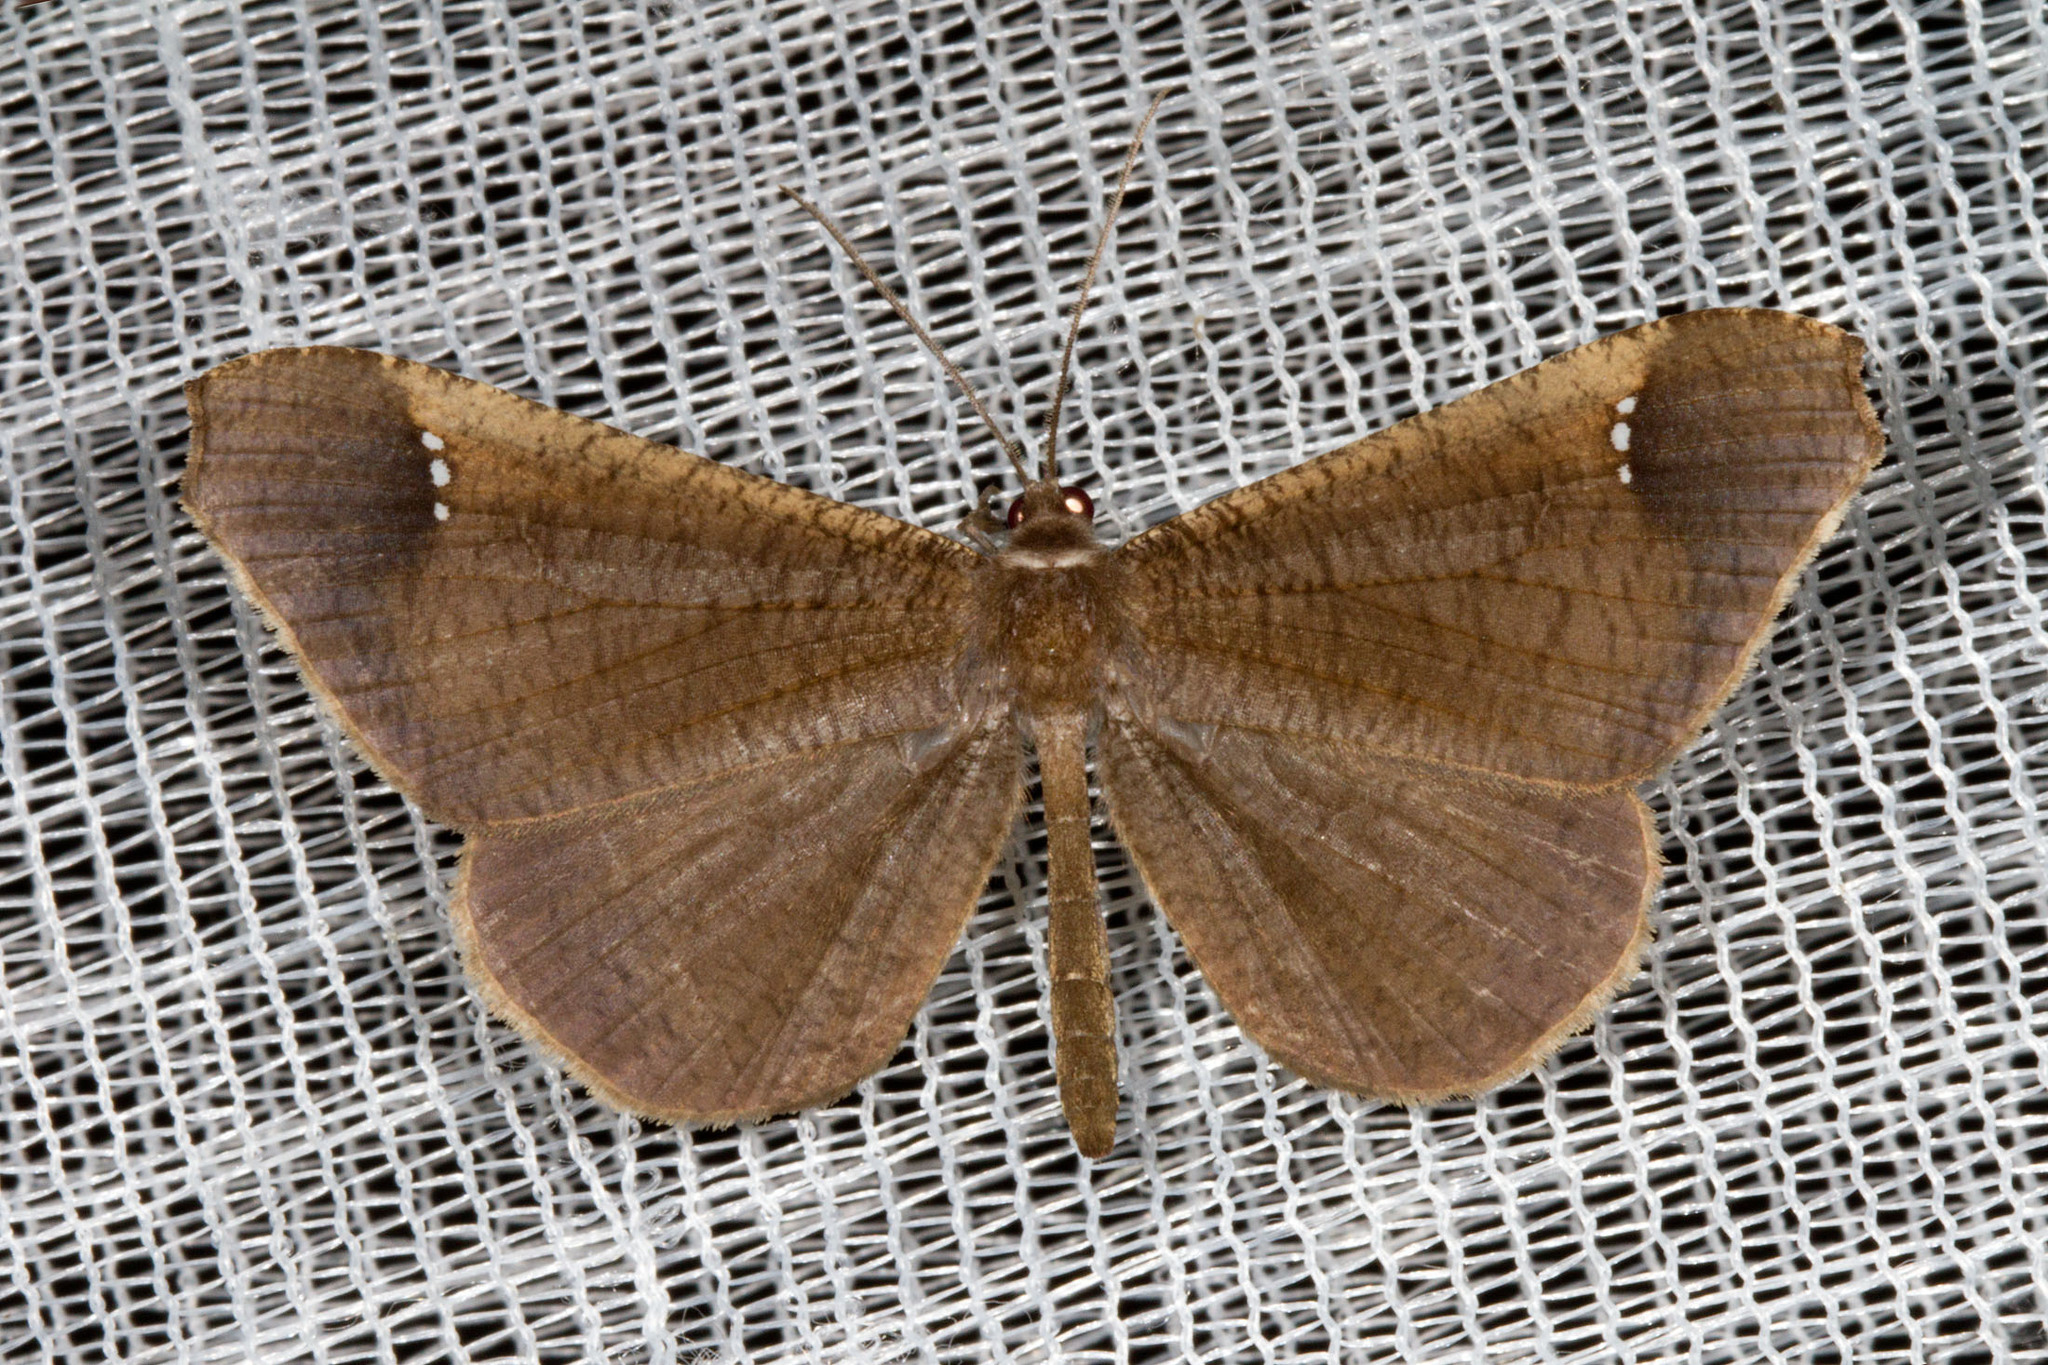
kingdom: Animalia
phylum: Arthropoda
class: Insecta
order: Lepidoptera
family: Hedylidae
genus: Macrosoma
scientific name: Macrosoma stabilinota
